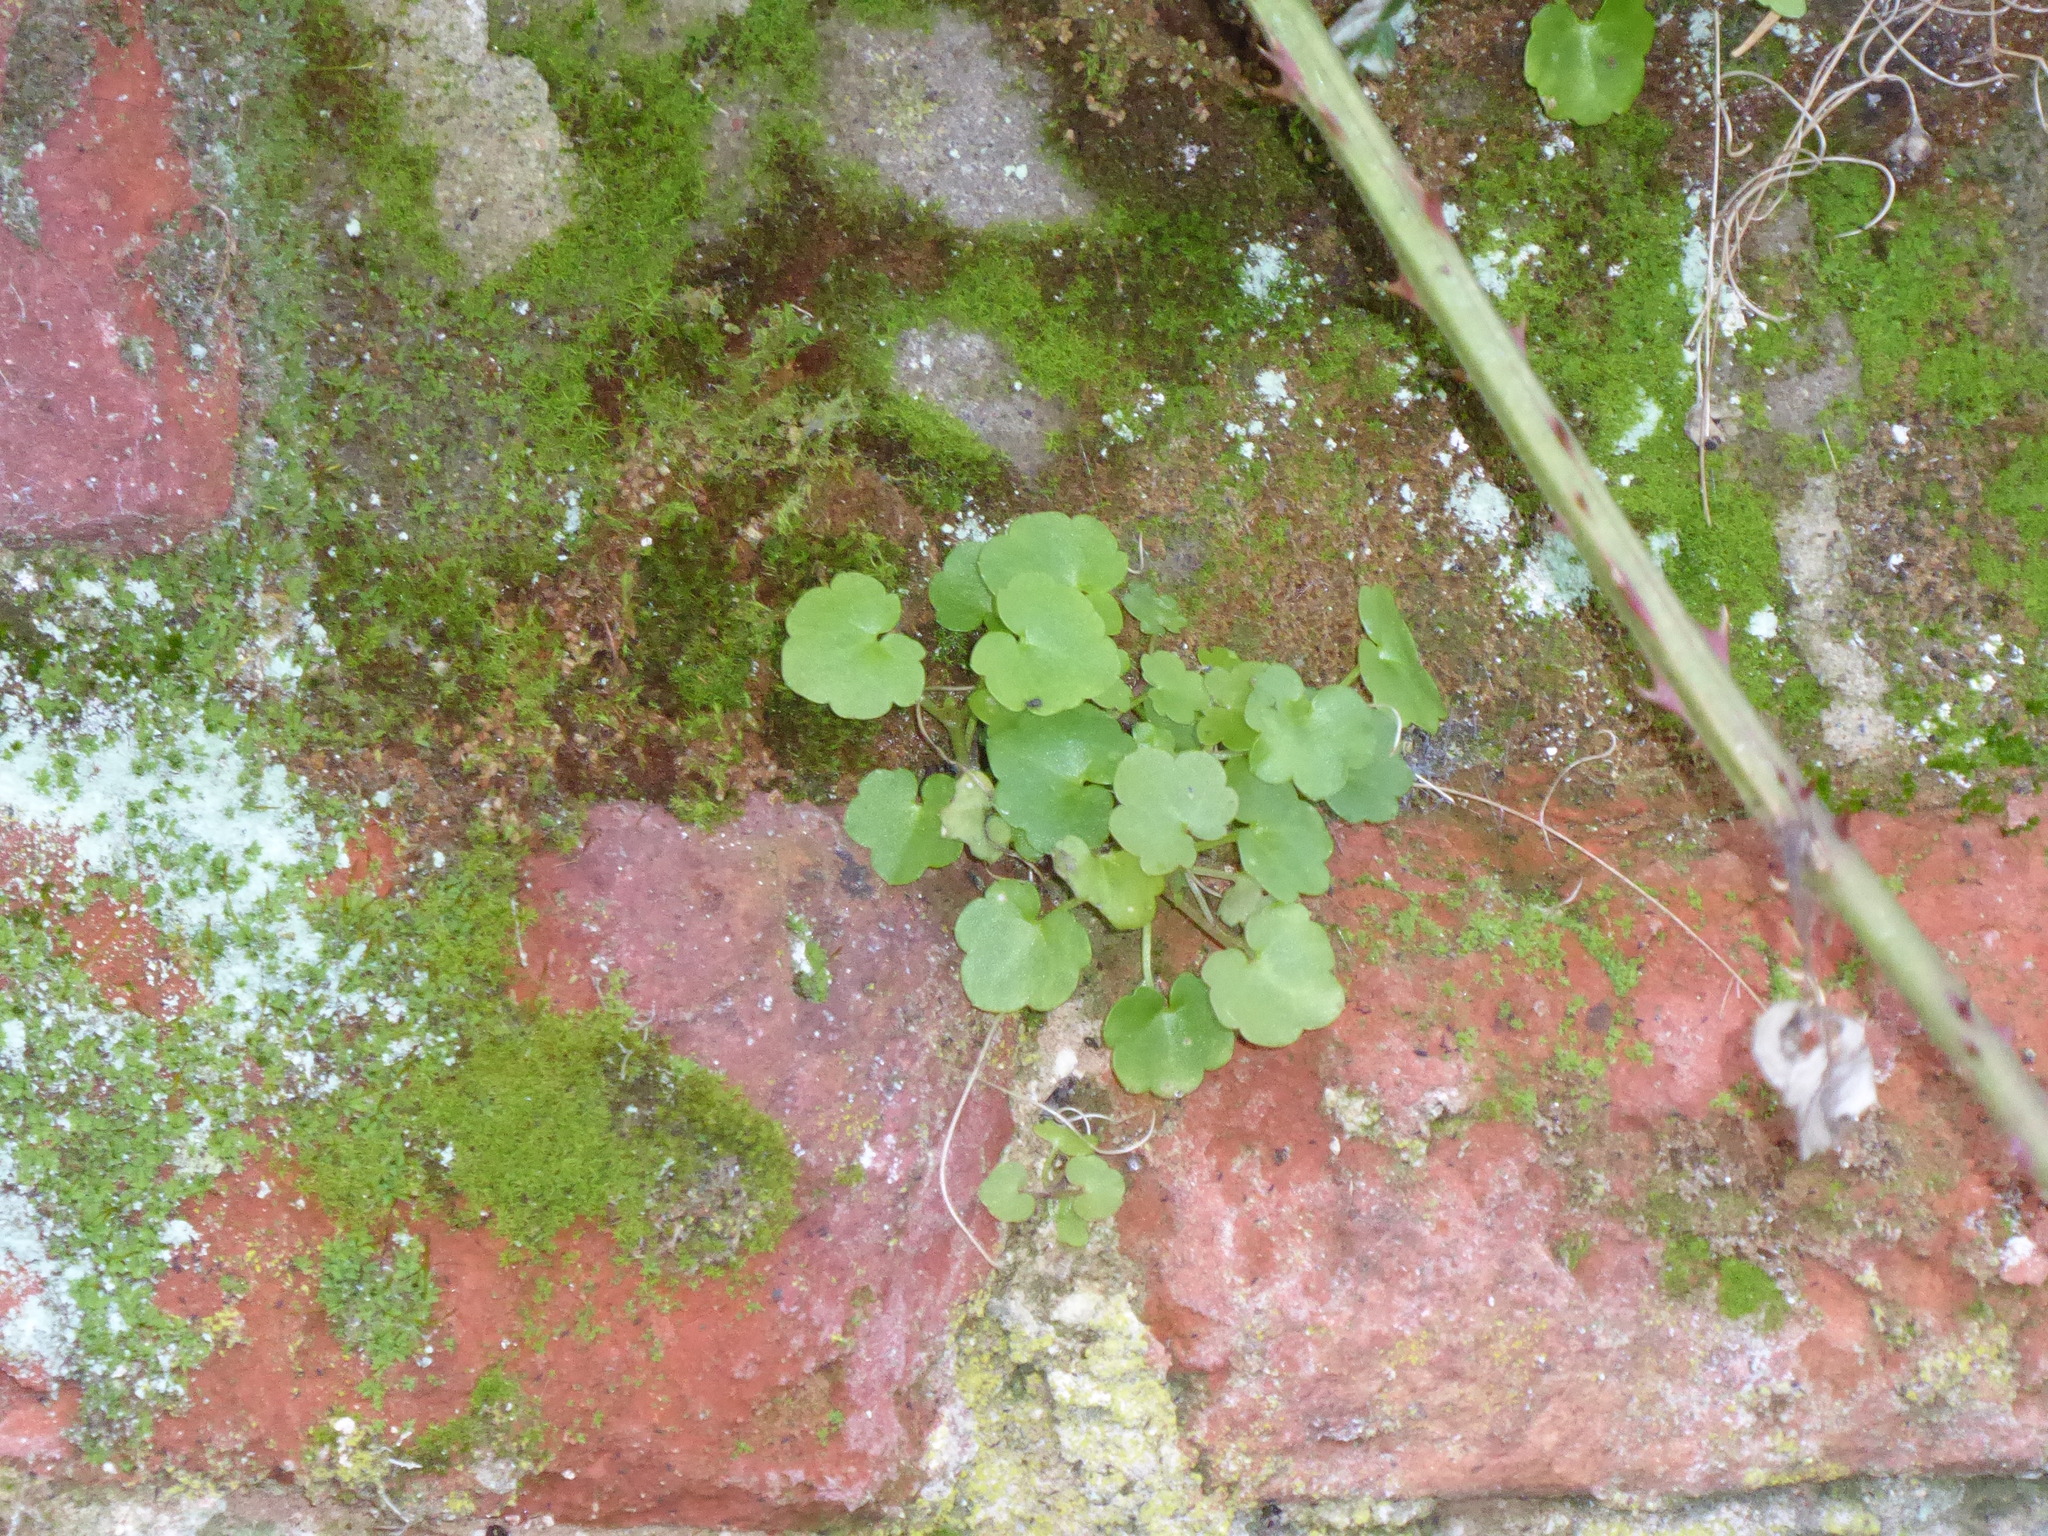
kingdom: Plantae
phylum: Tracheophyta
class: Magnoliopsida
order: Lamiales
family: Plantaginaceae
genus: Cymbalaria
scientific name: Cymbalaria muralis
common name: Ivy-leaved toadflax
